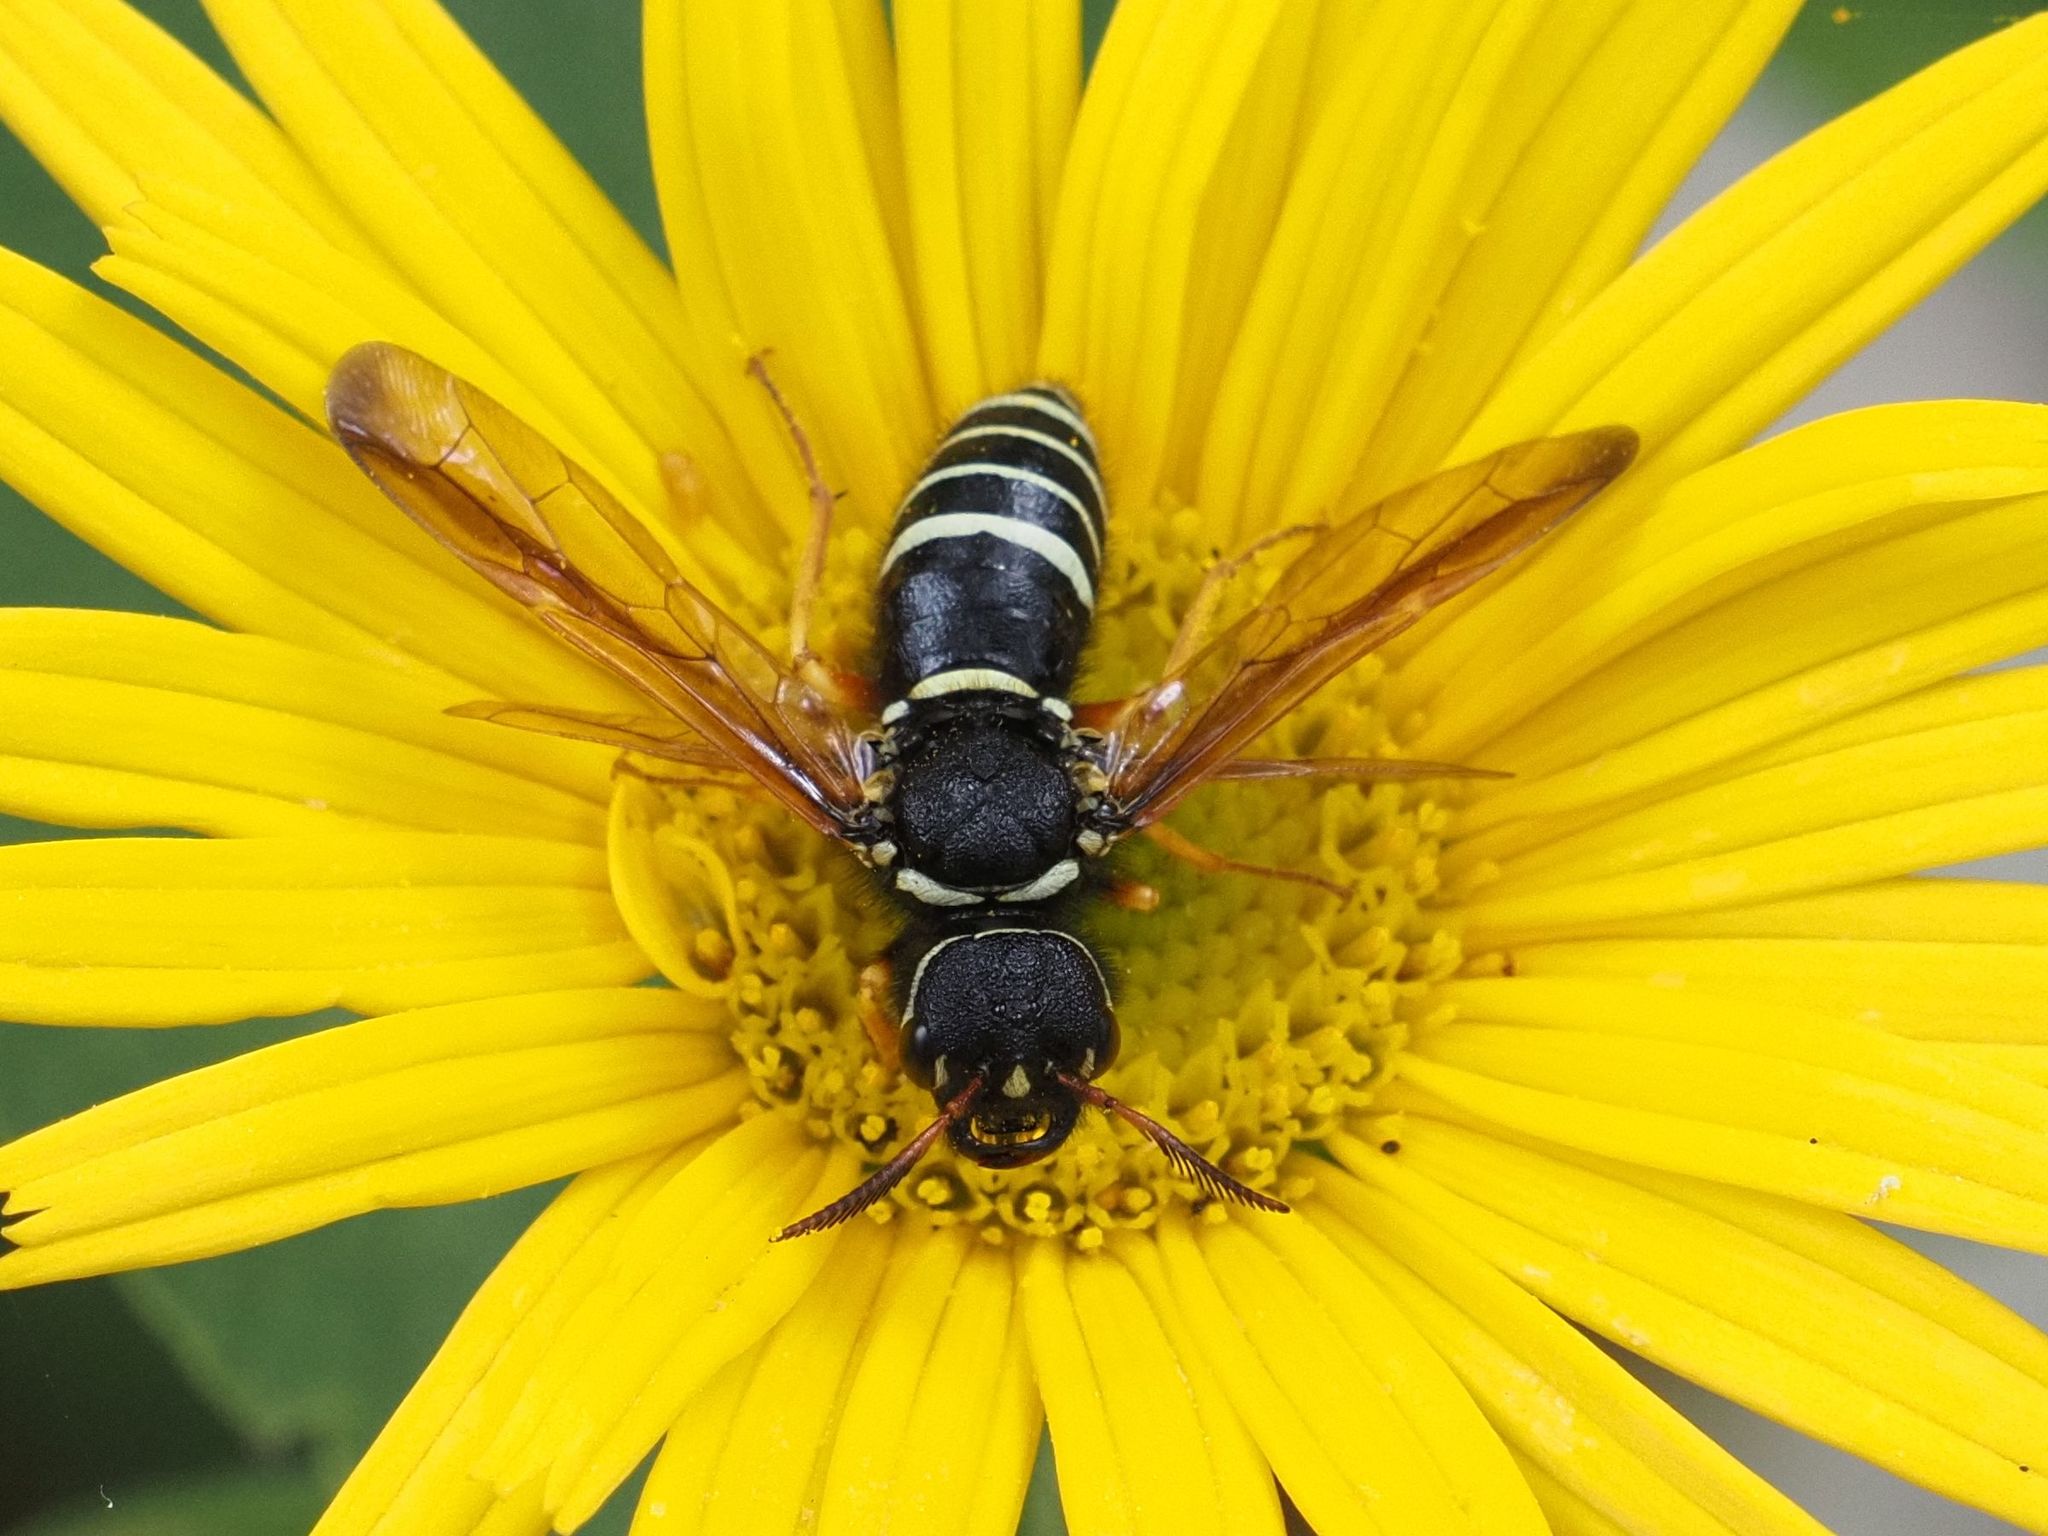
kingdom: Animalia
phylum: Arthropoda
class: Insecta
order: Hymenoptera
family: Megalodontesidae
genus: Megalodontes
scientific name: Megalodontes cephalotes
